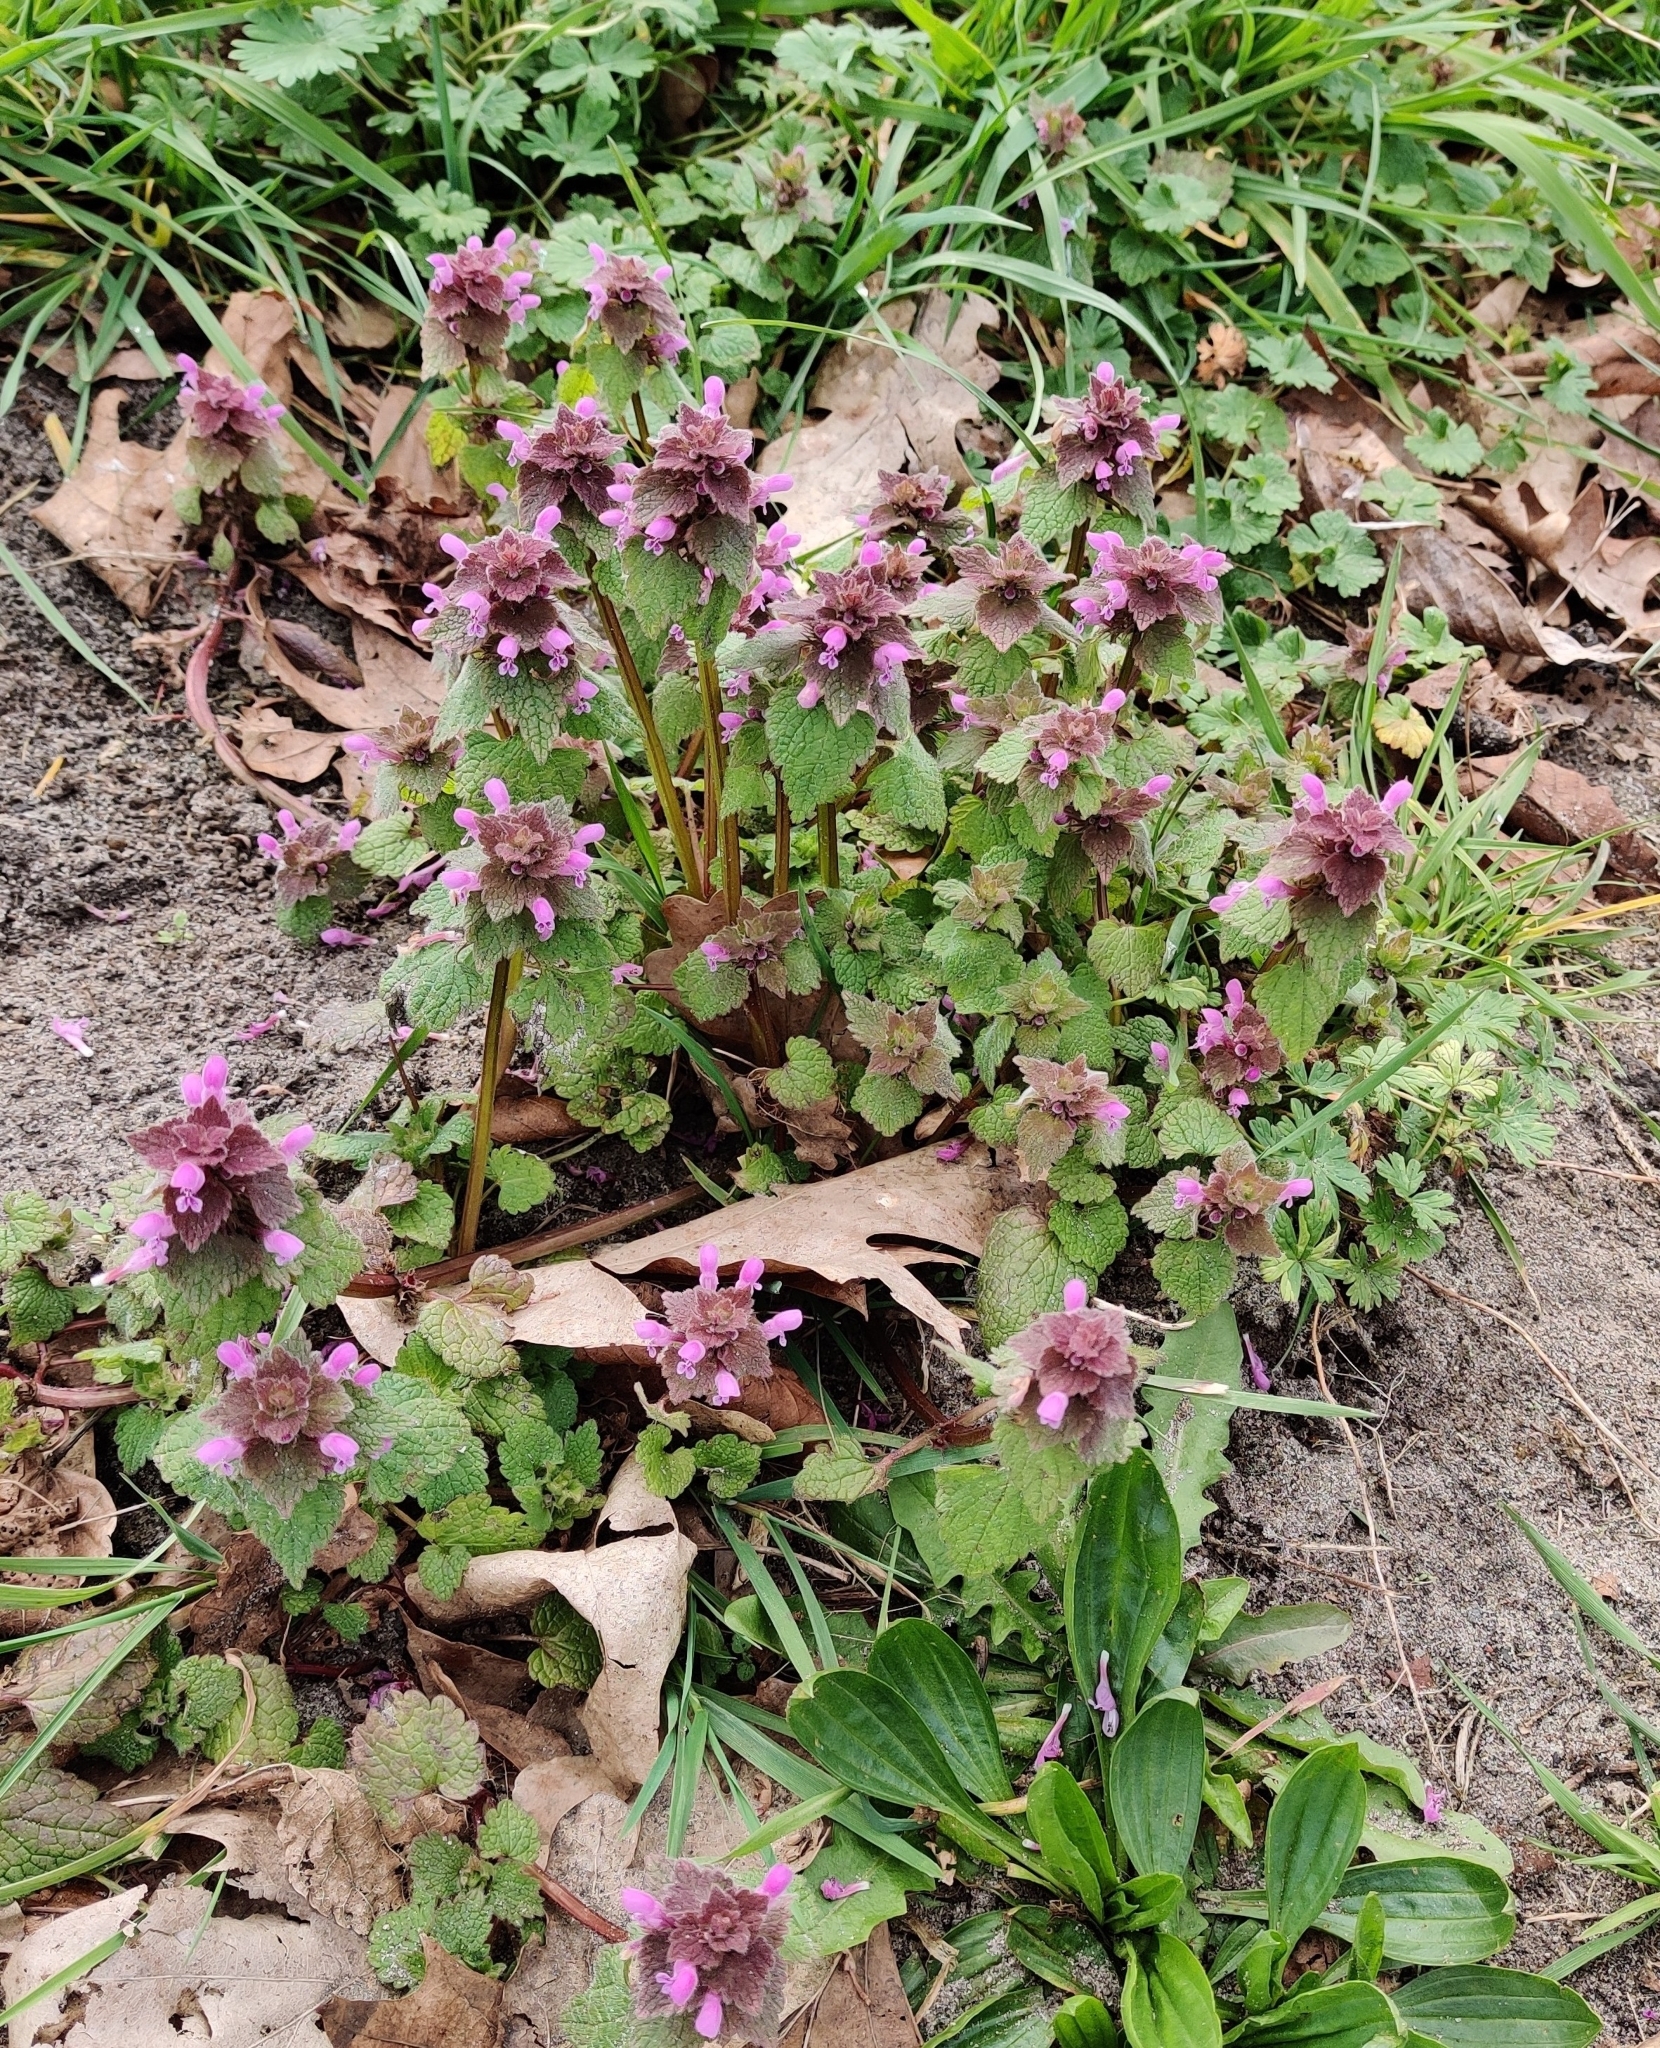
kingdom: Plantae
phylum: Tracheophyta
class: Magnoliopsida
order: Lamiales
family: Lamiaceae
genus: Lamium
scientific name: Lamium purpureum
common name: Red dead-nettle
